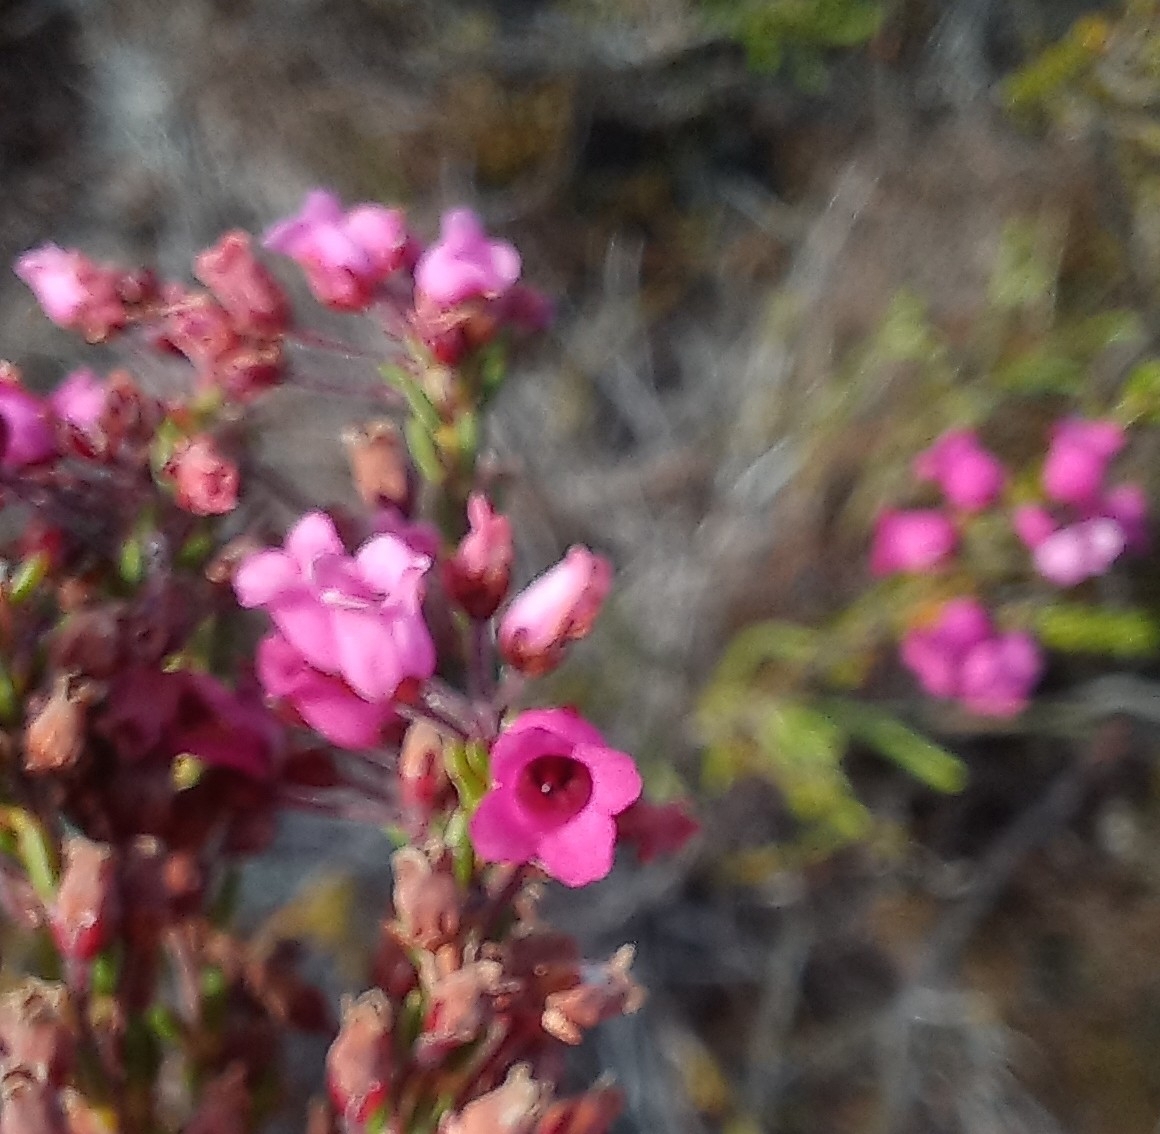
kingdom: Plantae
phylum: Tracheophyta
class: Magnoliopsida
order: Ericales
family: Ericaceae
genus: Erica
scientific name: Erica pulchella
